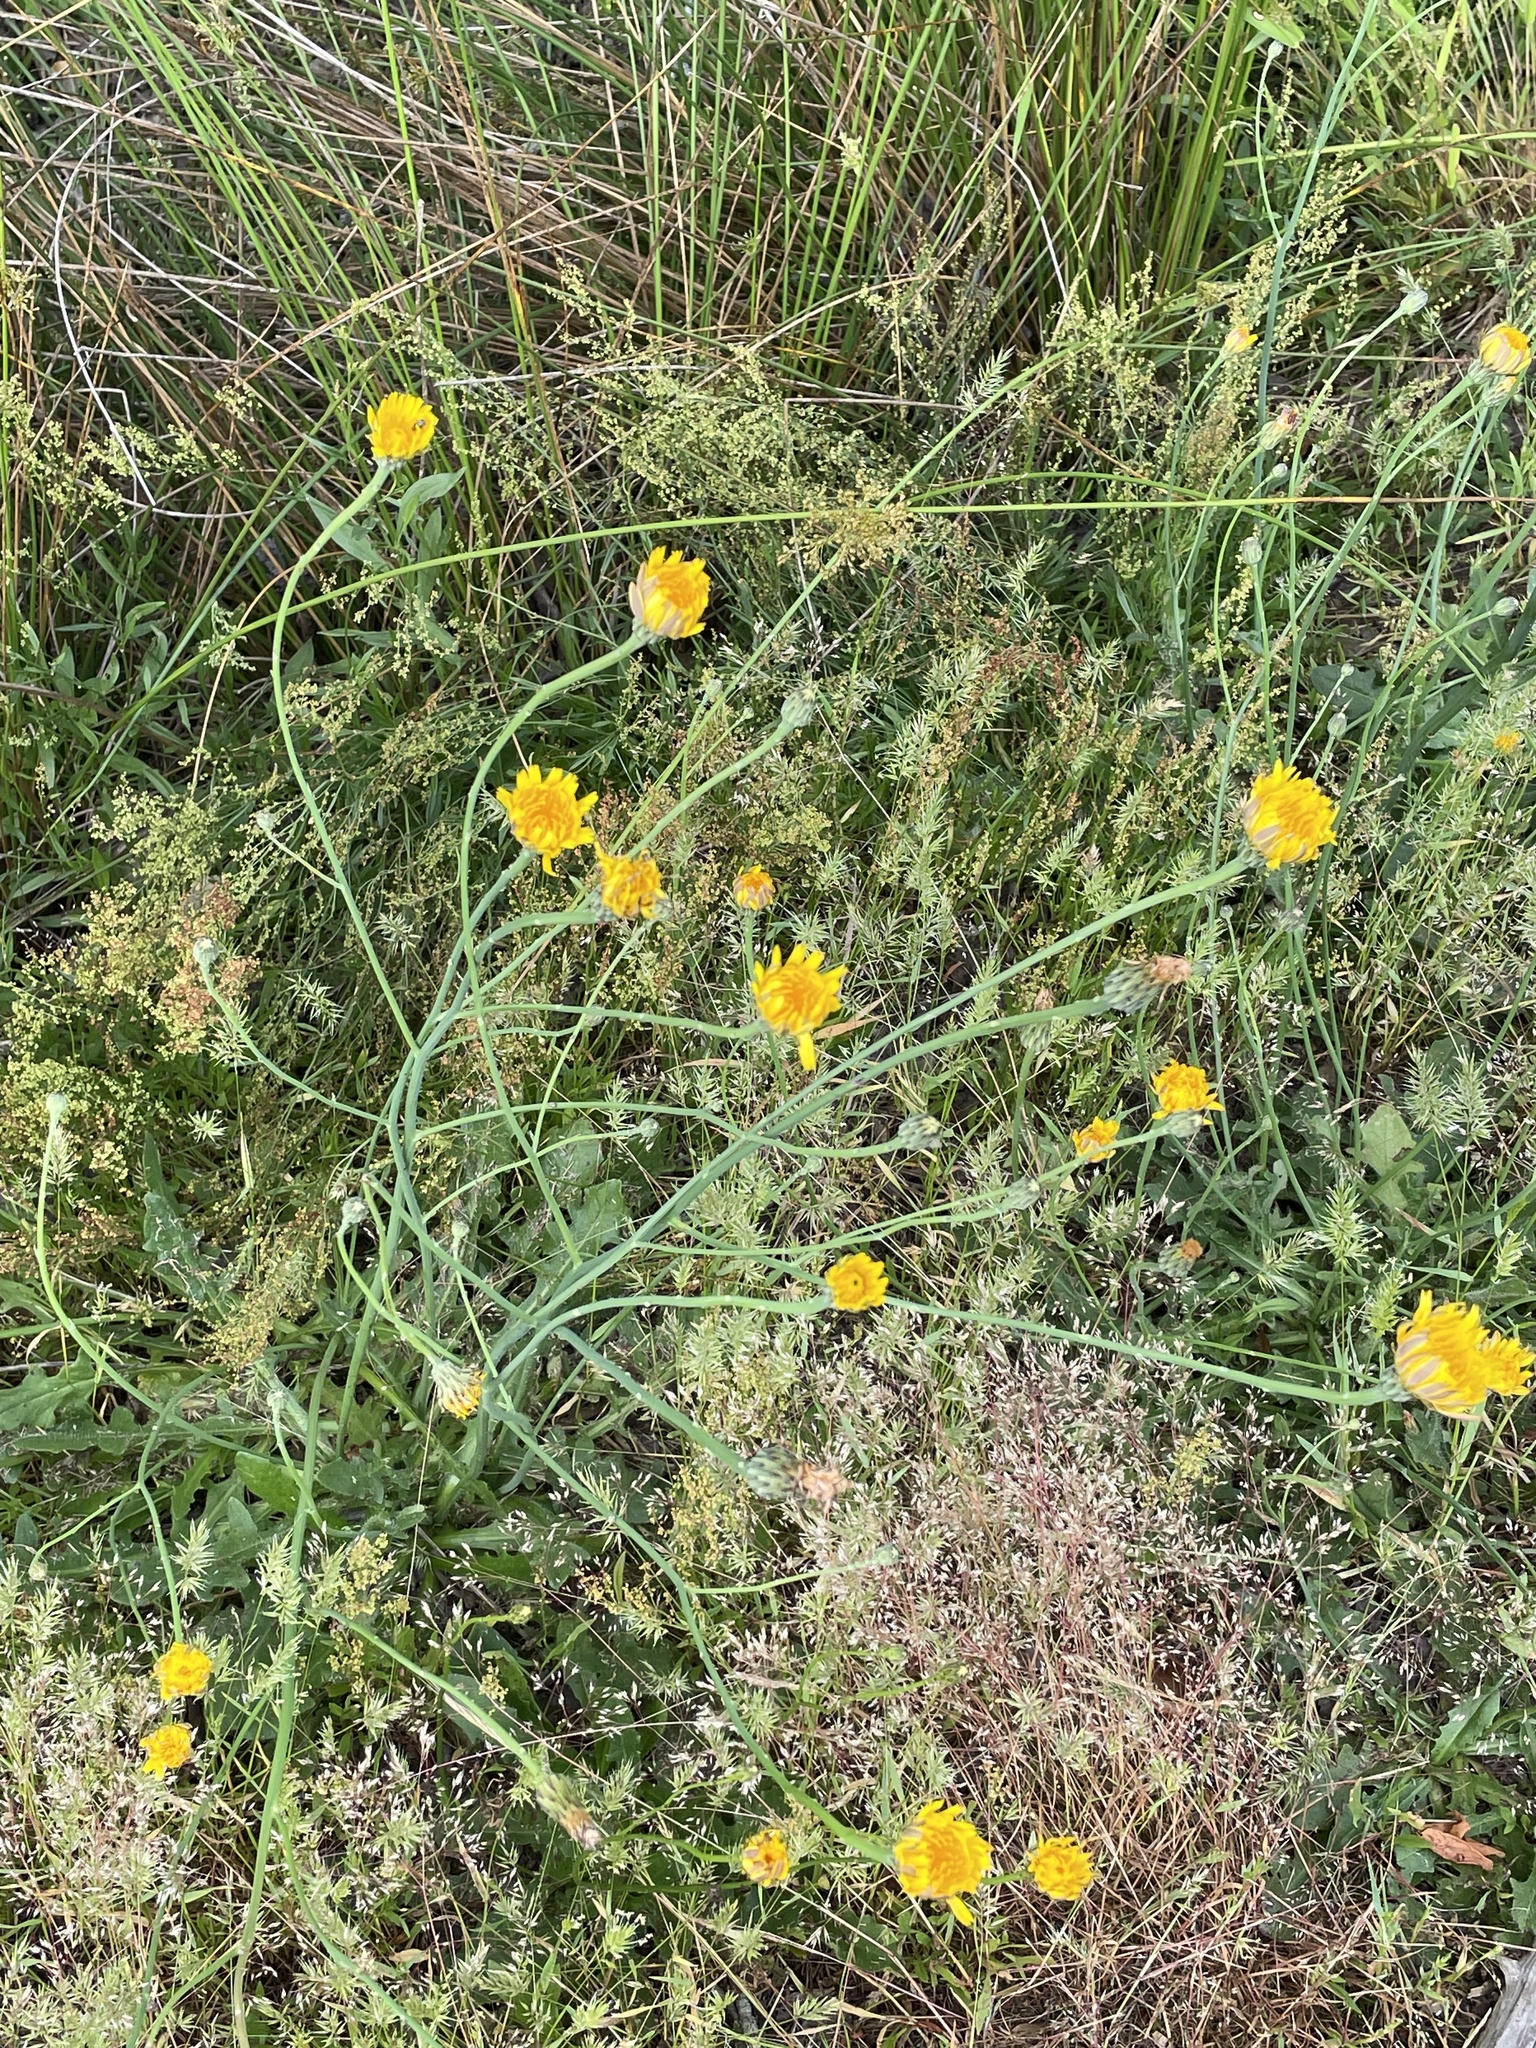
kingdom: Plantae
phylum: Tracheophyta
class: Magnoliopsida
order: Asterales
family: Asteraceae
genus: Hypochaeris
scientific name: Hypochaeris radicata
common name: Flatweed
